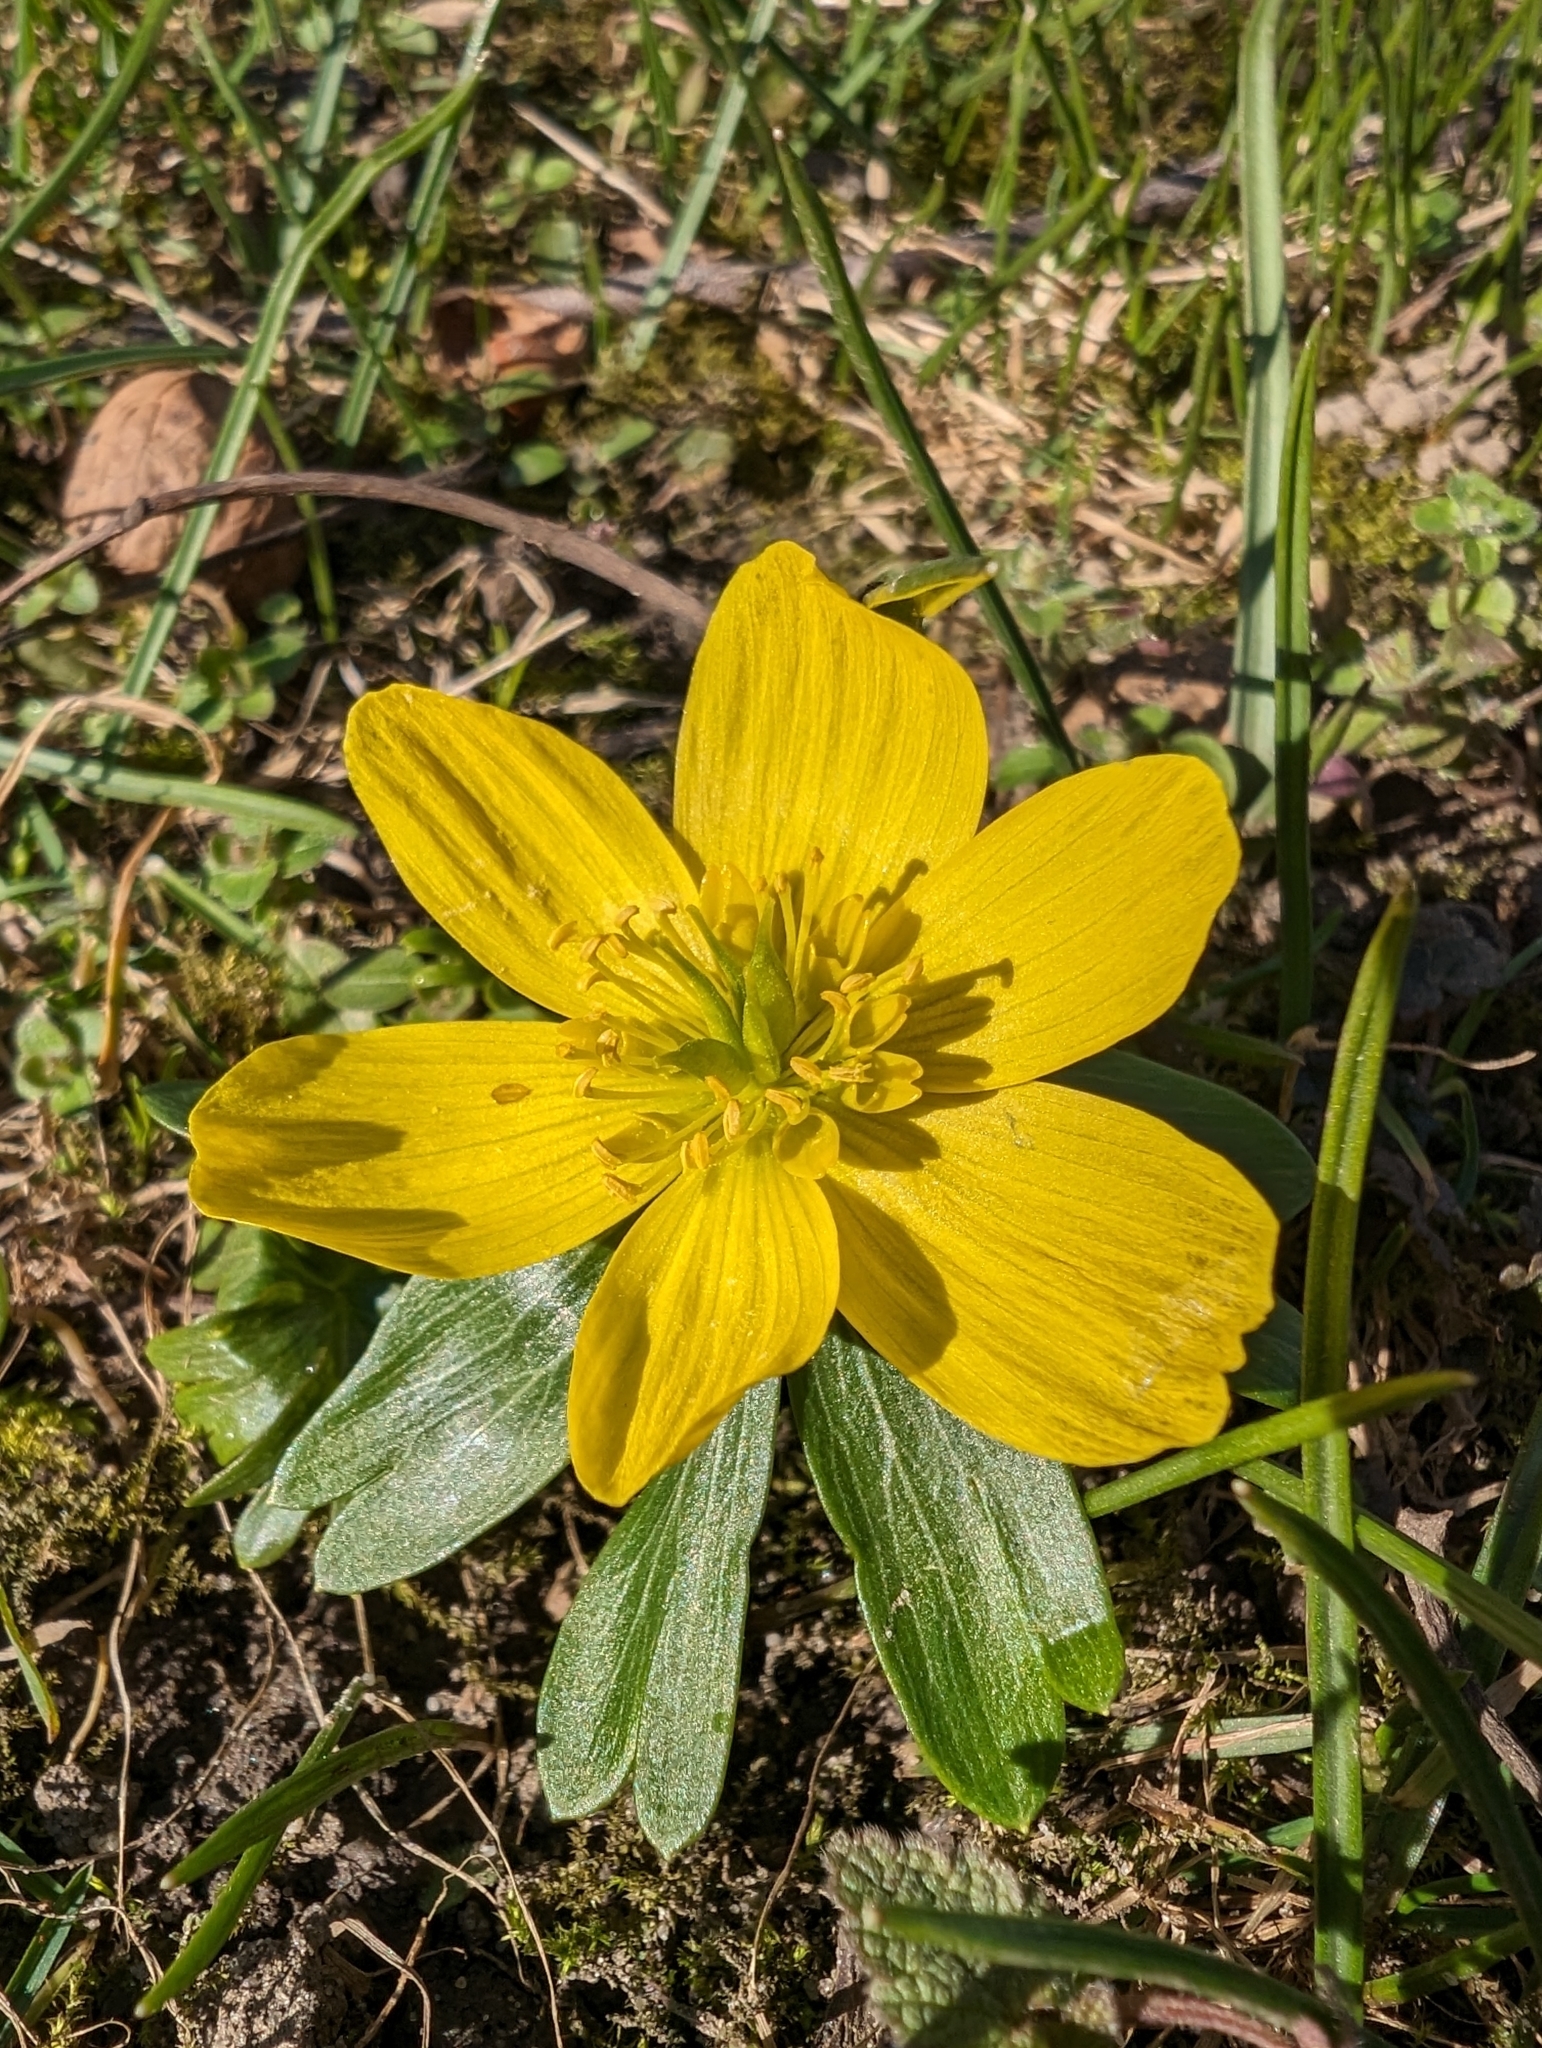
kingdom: Plantae
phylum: Tracheophyta
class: Magnoliopsida
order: Ranunculales
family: Ranunculaceae
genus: Eranthis
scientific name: Eranthis hyemalis
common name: Winter aconite
